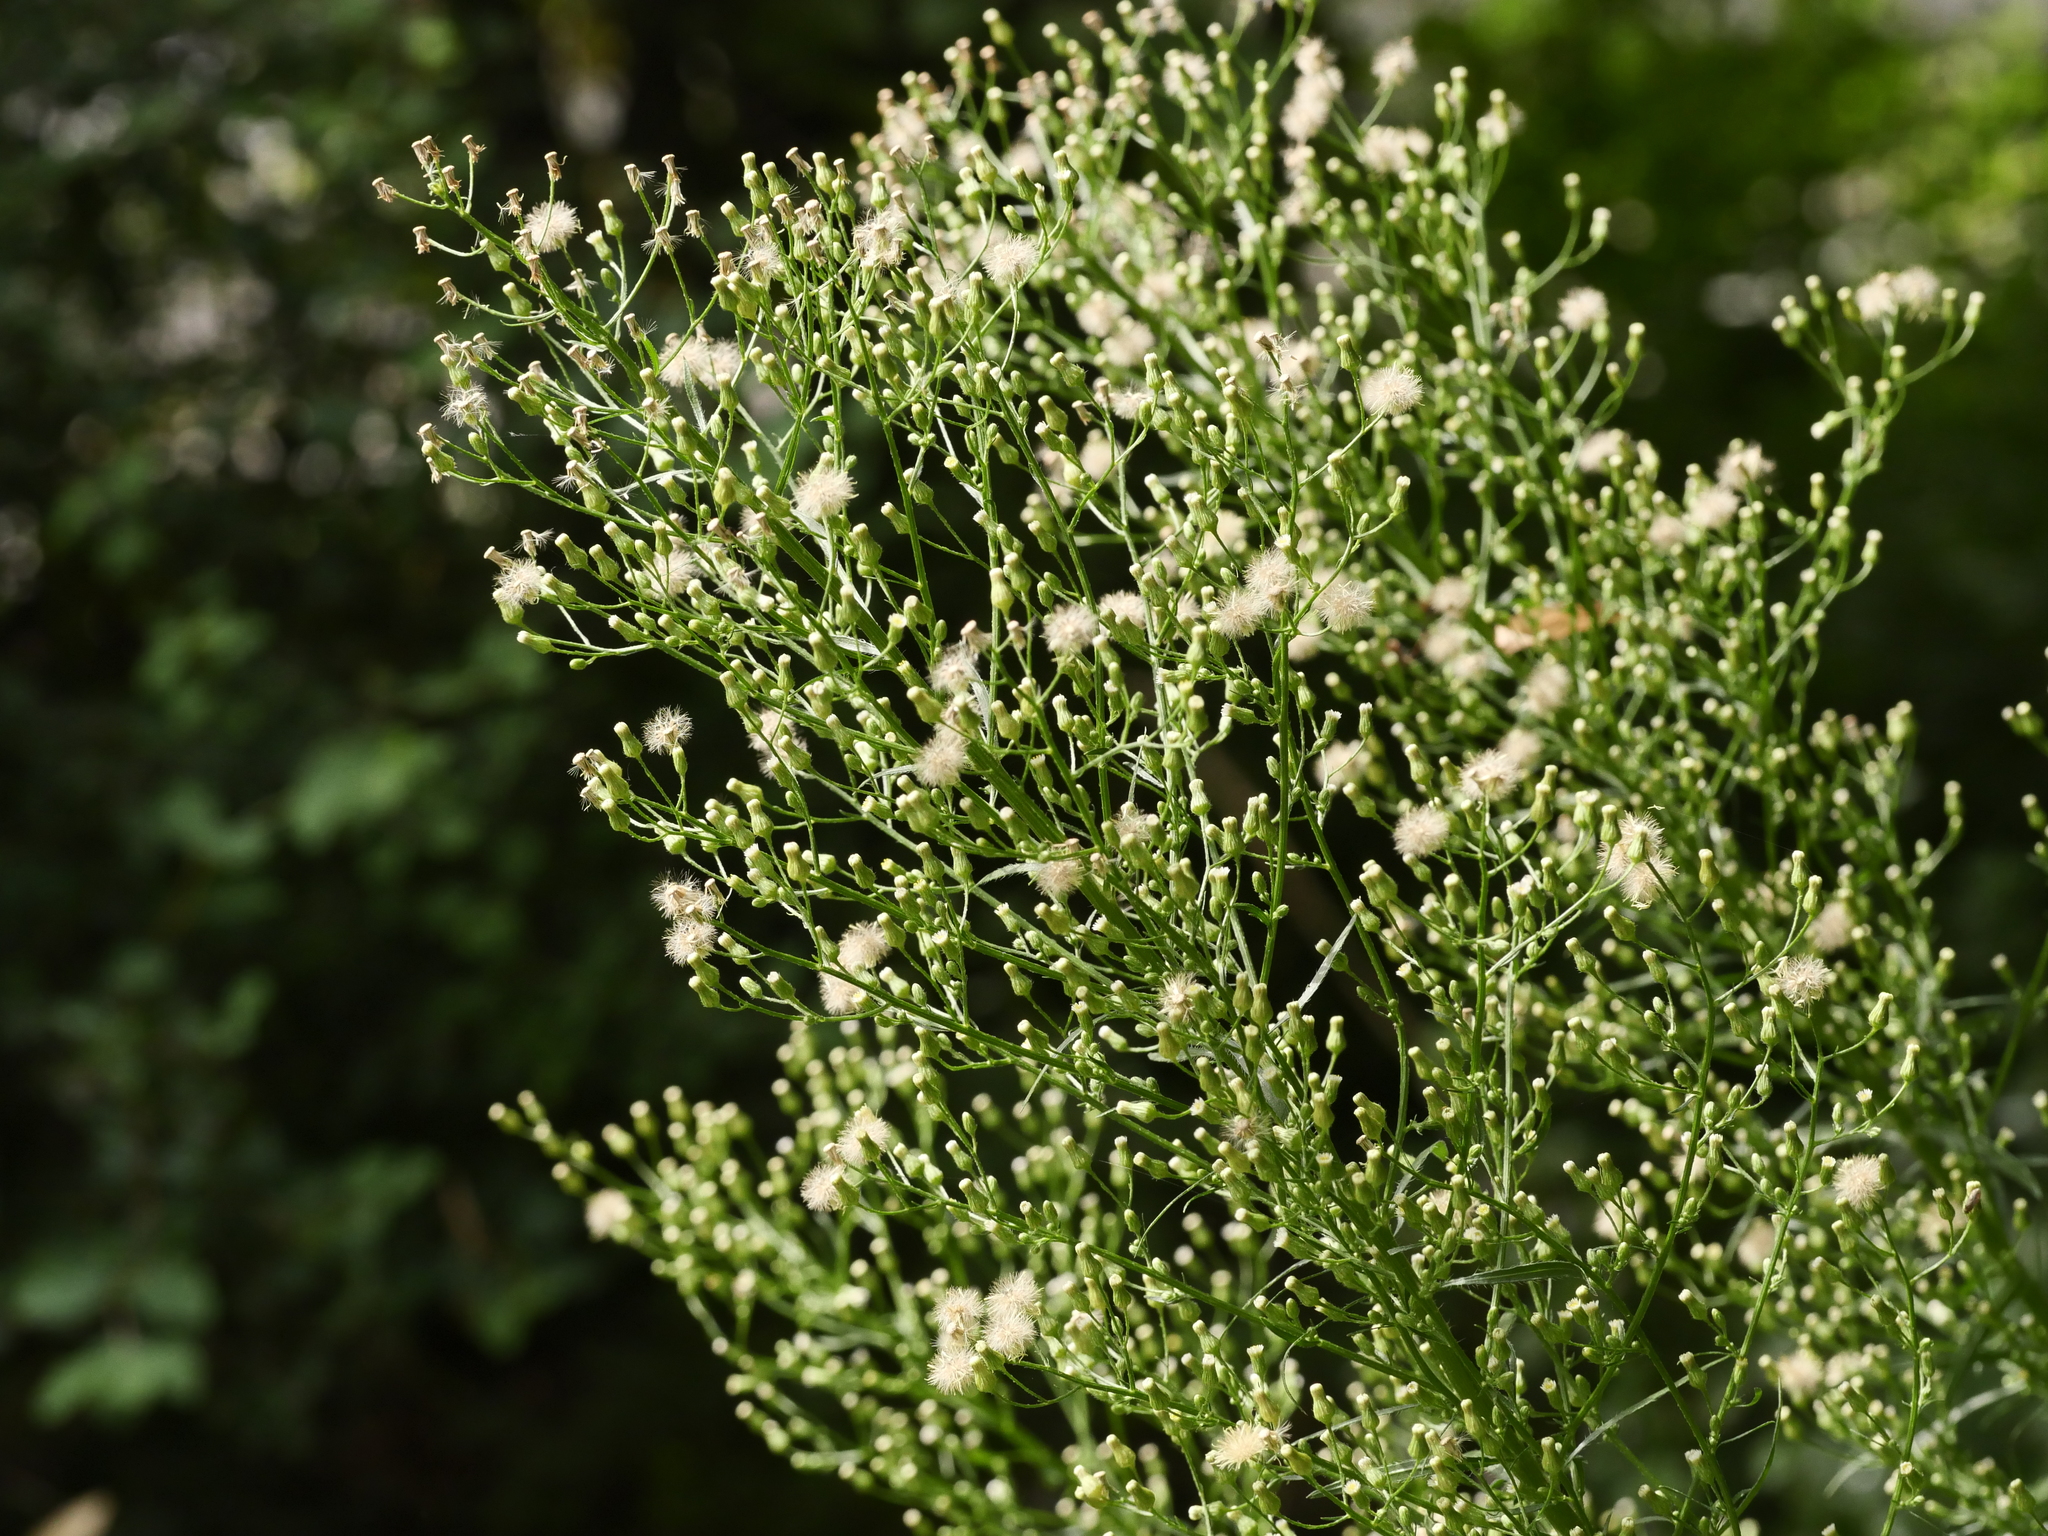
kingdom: Plantae
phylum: Tracheophyta
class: Magnoliopsida
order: Asterales
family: Asteraceae
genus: Erigeron
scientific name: Erigeron canadensis
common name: Canadian fleabane
